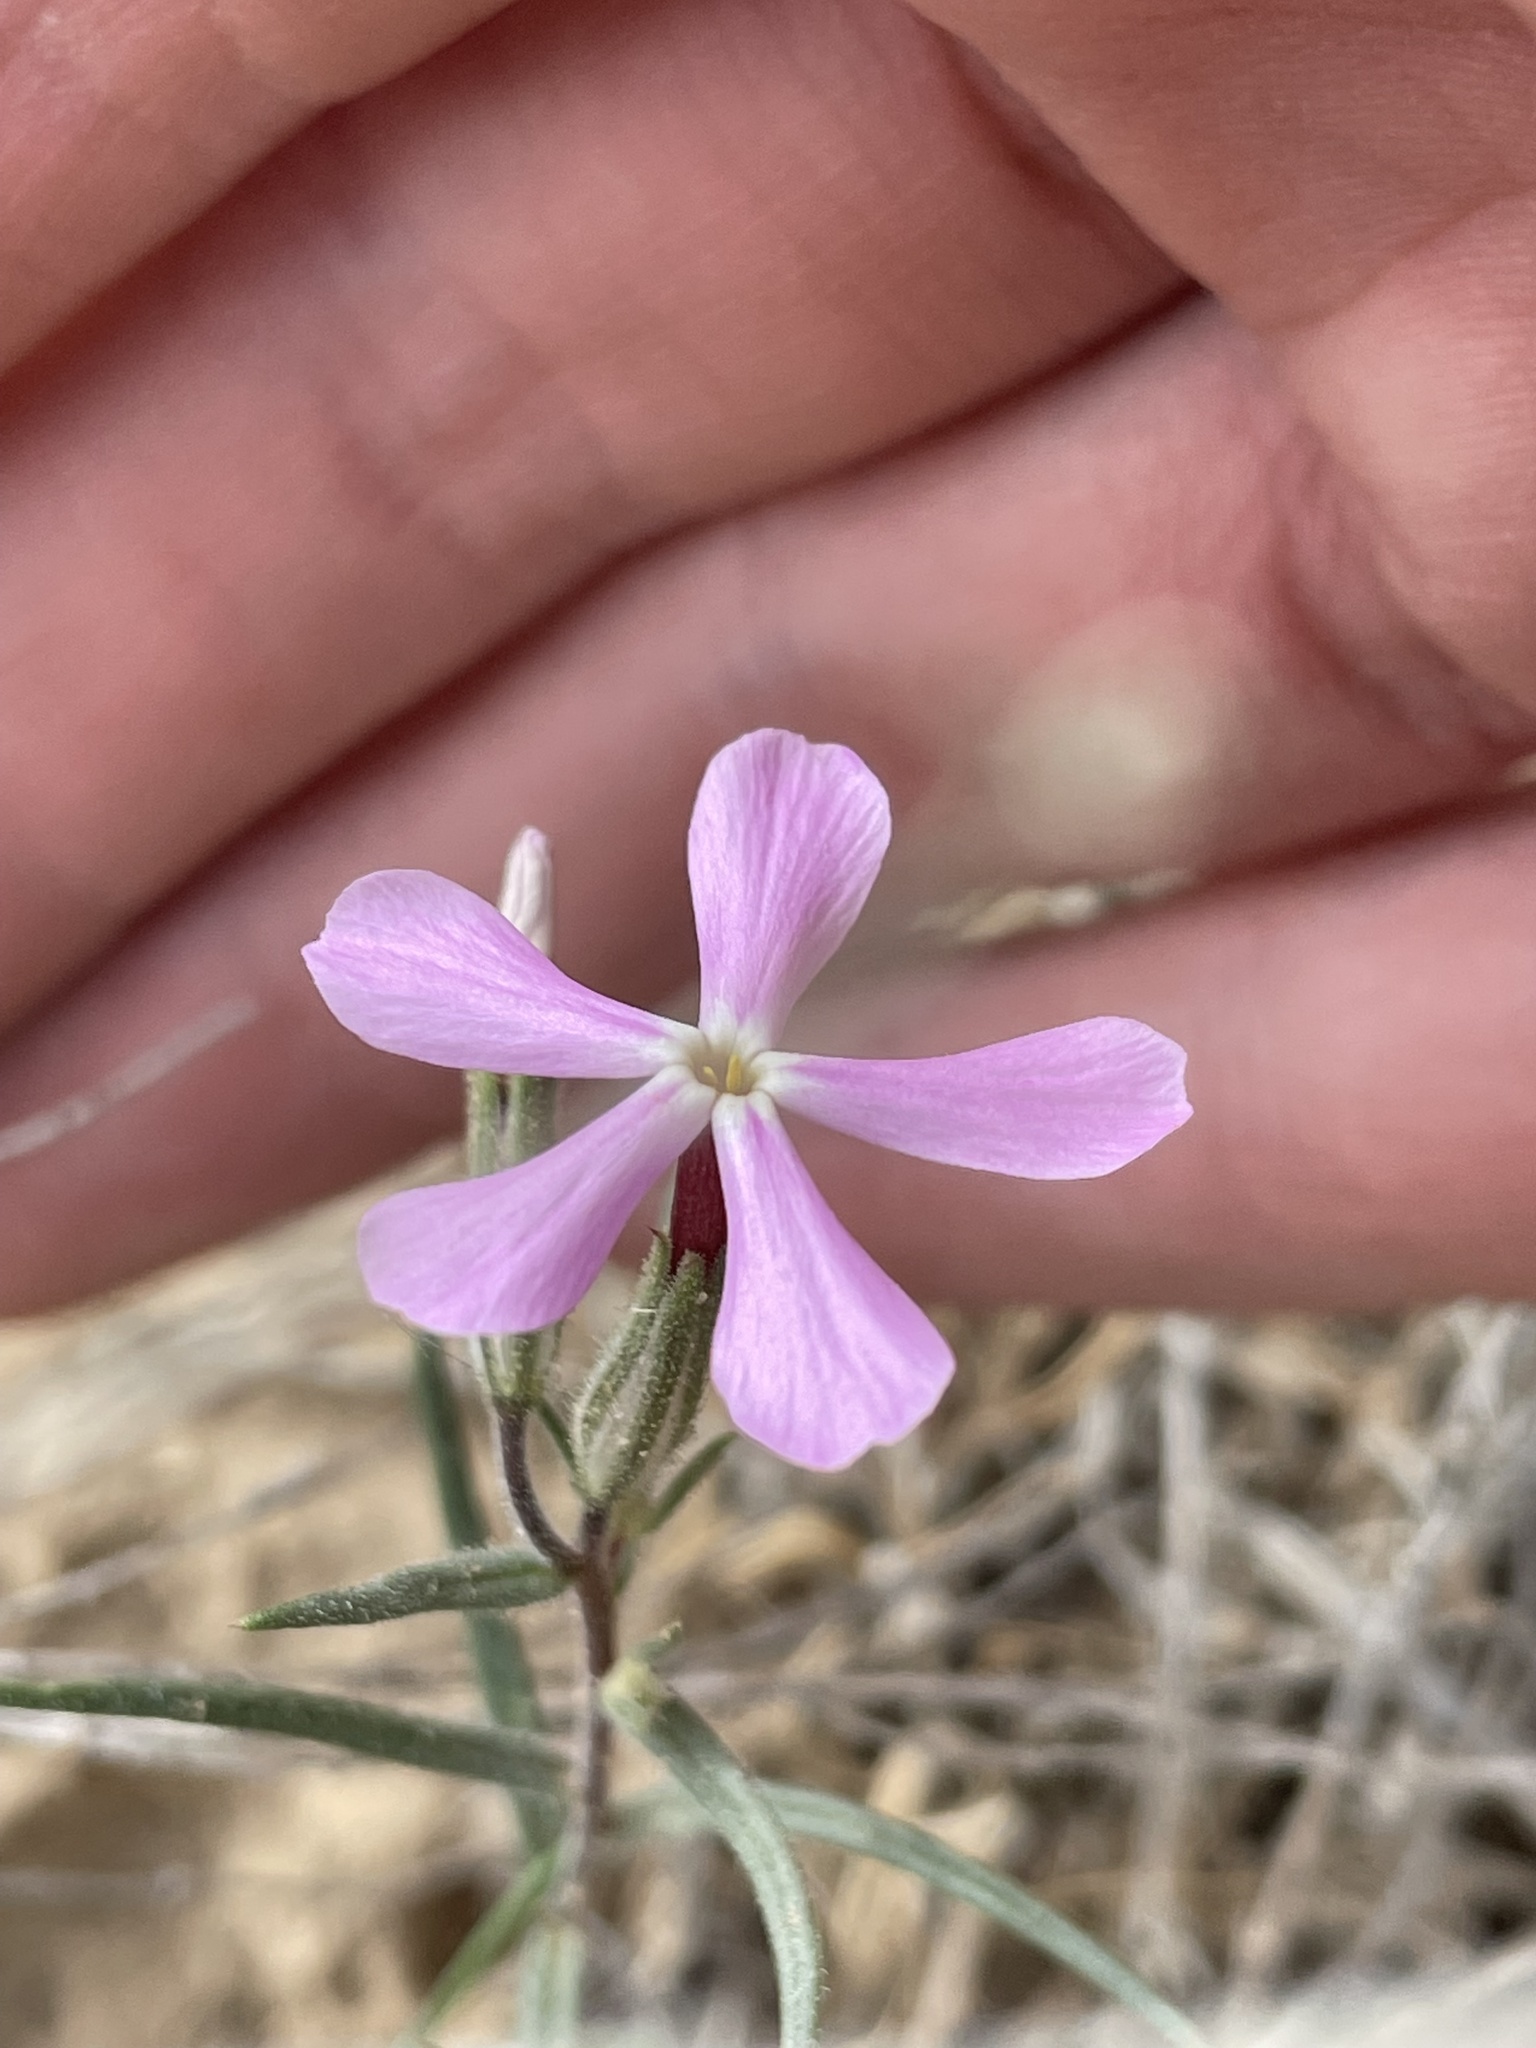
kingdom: Plantae
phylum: Tracheophyta
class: Magnoliopsida
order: Ericales
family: Polemoniaceae
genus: Phlox
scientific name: Phlox longifolia
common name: Longleaf phlox
